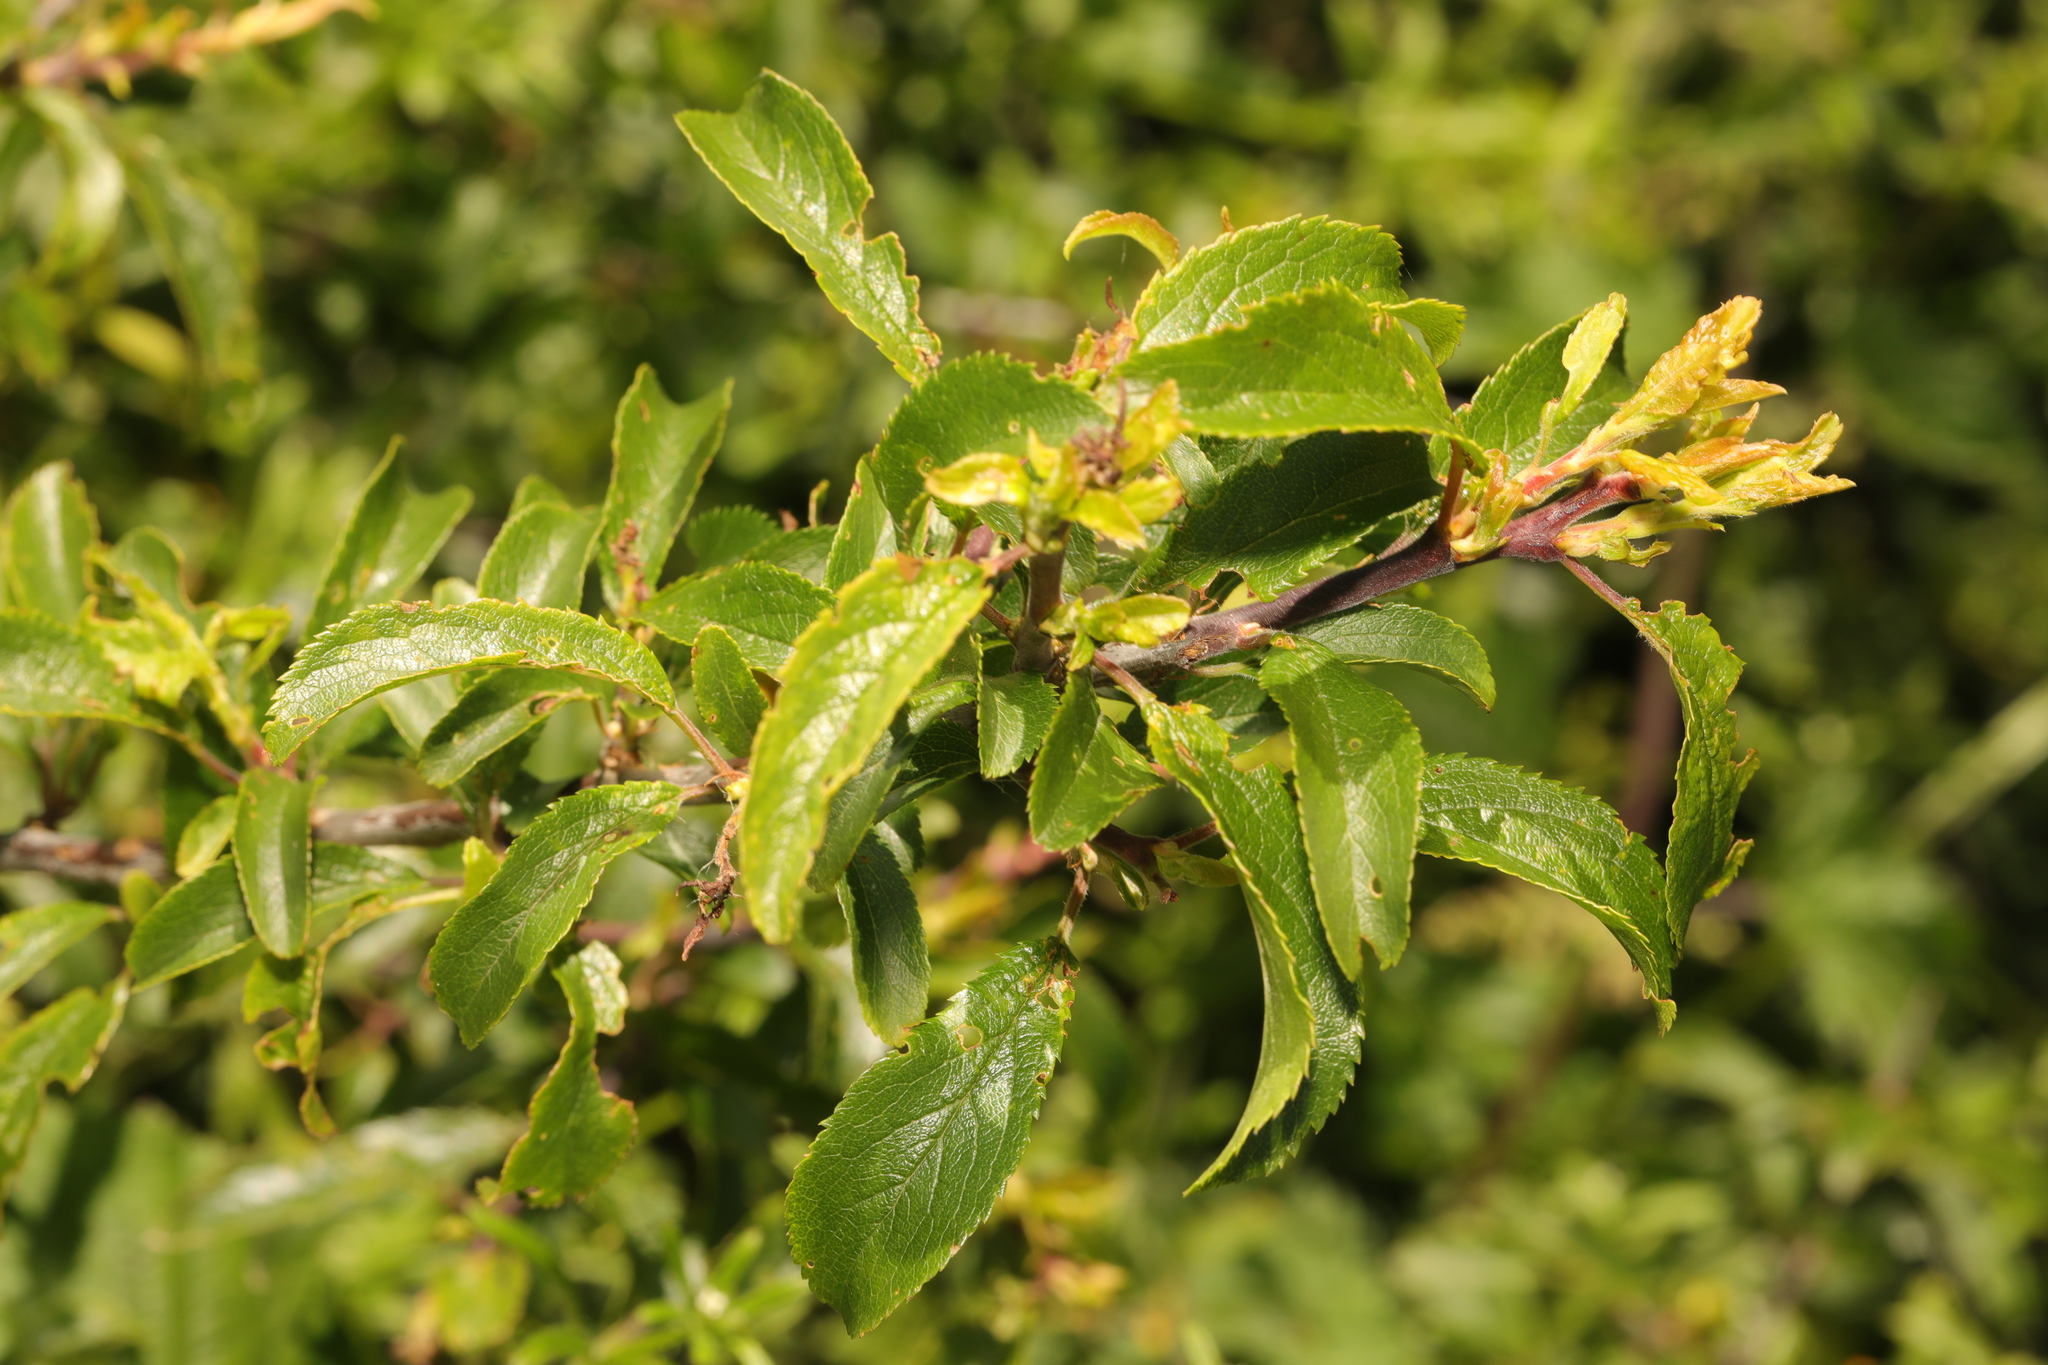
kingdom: Plantae
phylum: Tracheophyta
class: Magnoliopsida
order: Rosales
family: Rosaceae
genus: Prunus
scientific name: Prunus spinosa
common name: Blackthorn
